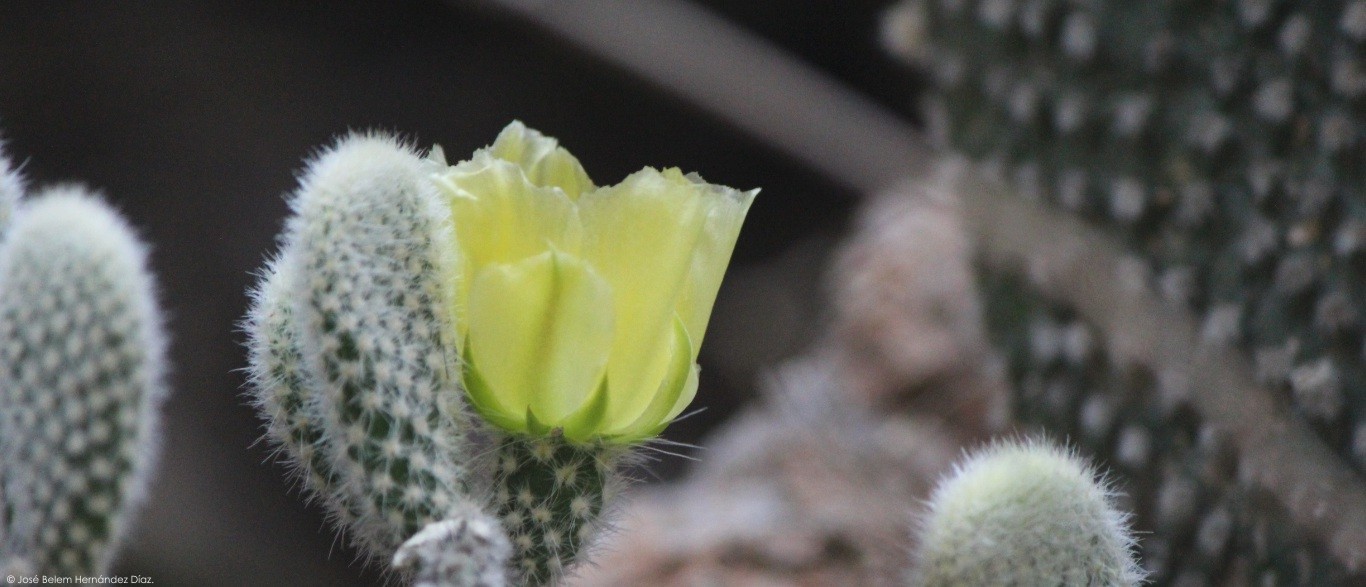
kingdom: Plantae
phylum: Tracheophyta
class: Magnoliopsida
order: Caryophyllales
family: Cactaceae
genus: Opuntia
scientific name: Opuntia microdasys
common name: Angel's-wings
